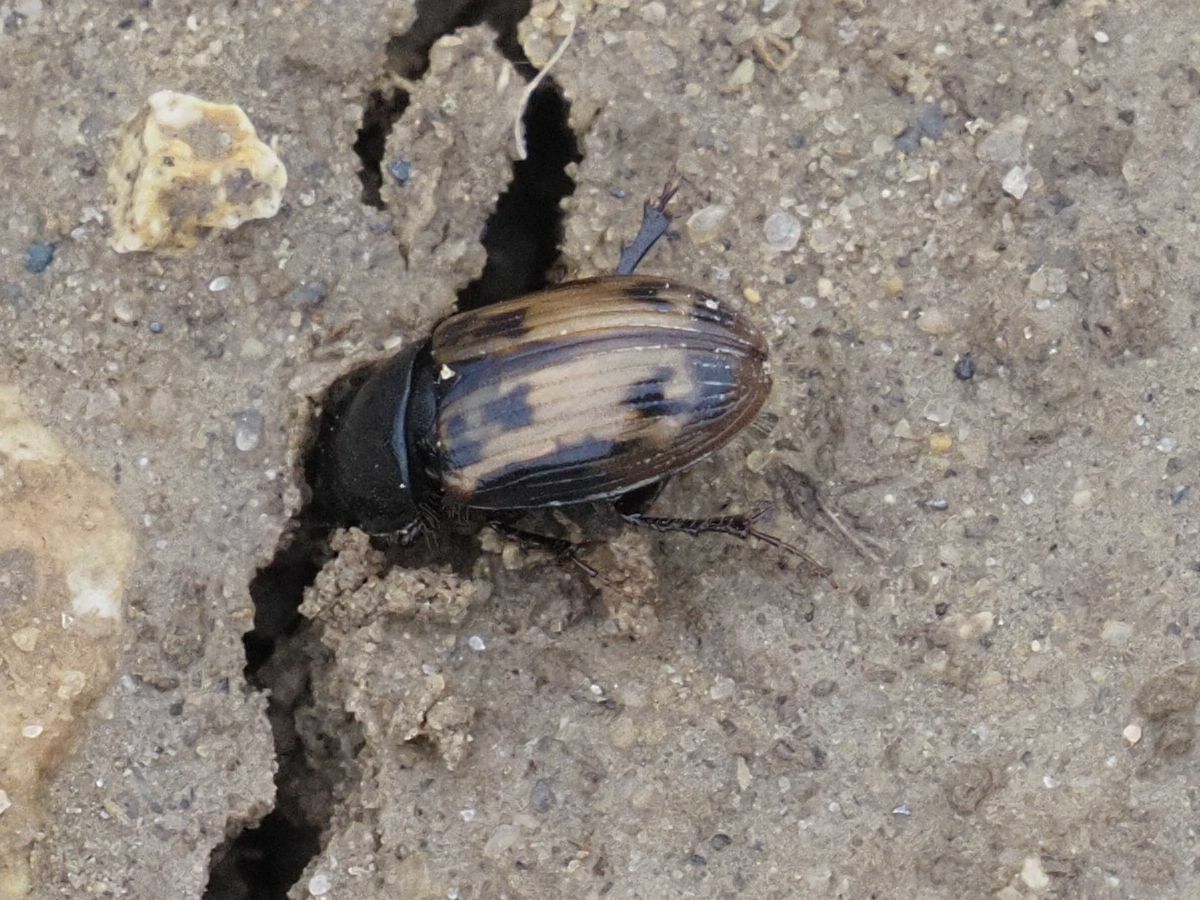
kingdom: Animalia
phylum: Arthropoda
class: Insecta
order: Coleoptera
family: Scarabaeidae
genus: Chilothorax
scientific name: Chilothorax distinctus
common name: Maculated dung beetle
